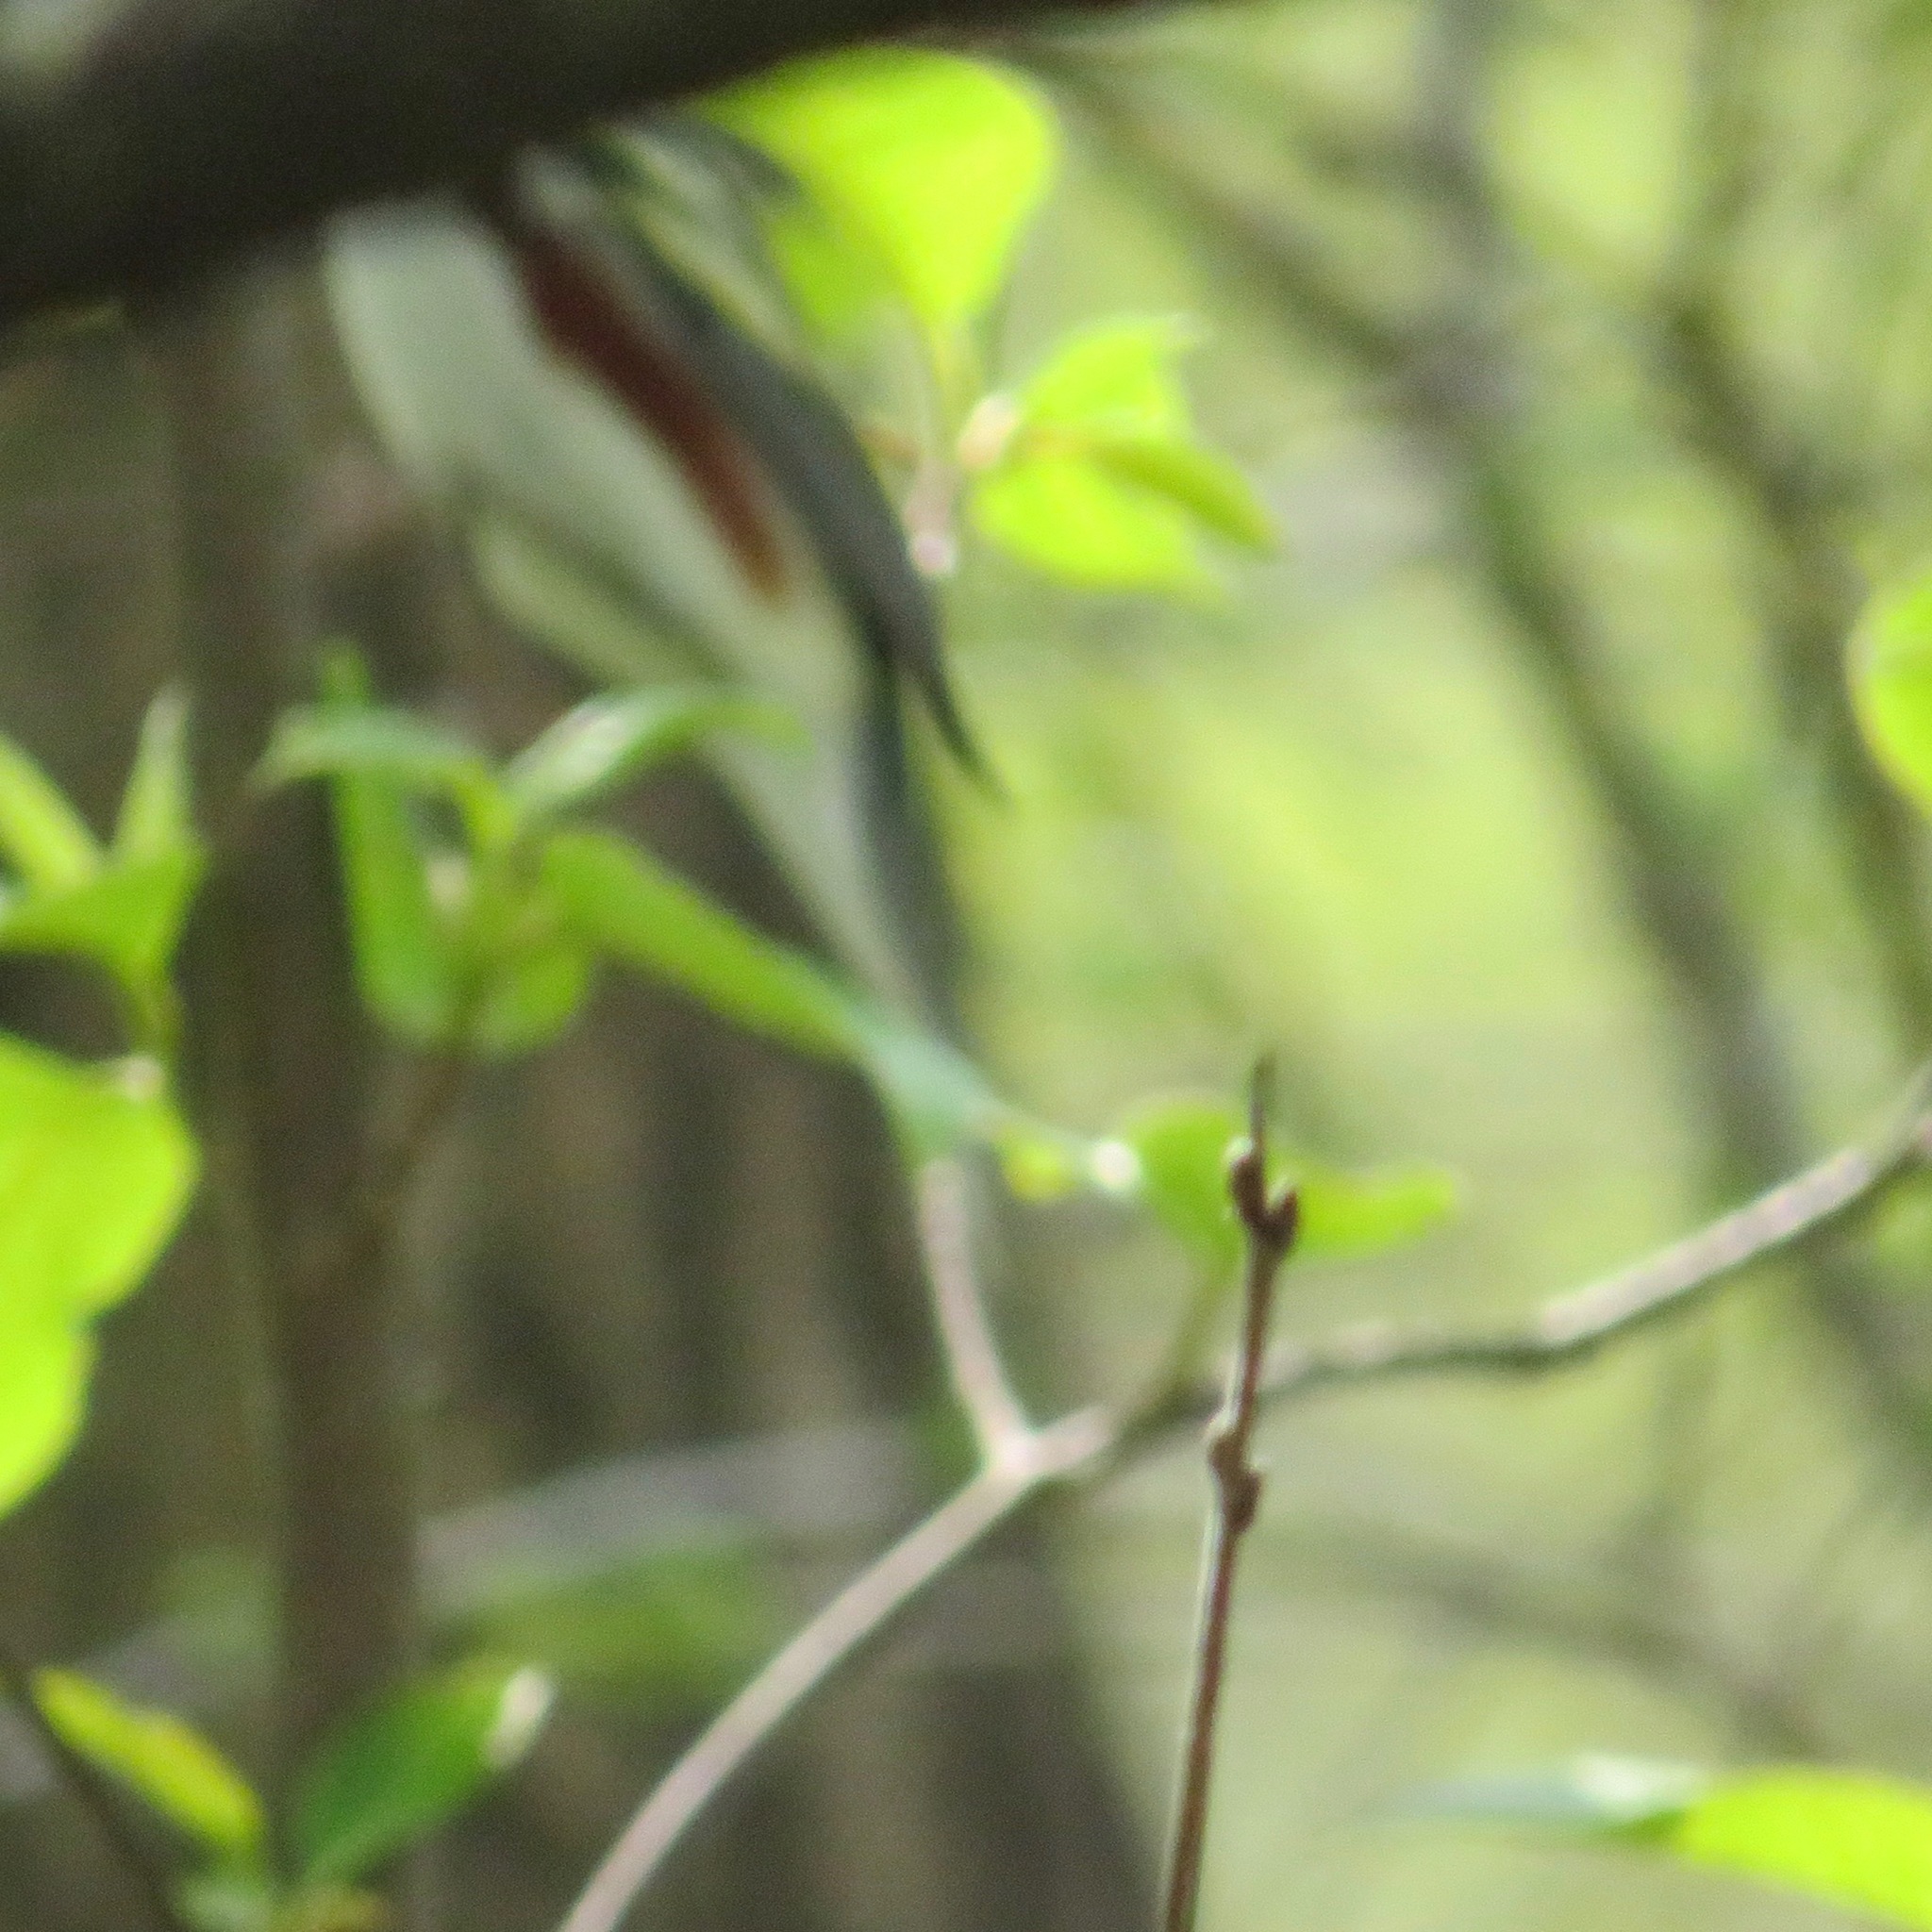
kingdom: Animalia
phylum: Chordata
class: Aves
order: Passeriformes
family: Parulidae
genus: Setophaga
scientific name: Setophaga pensylvanica
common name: Chestnut-sided warbler
